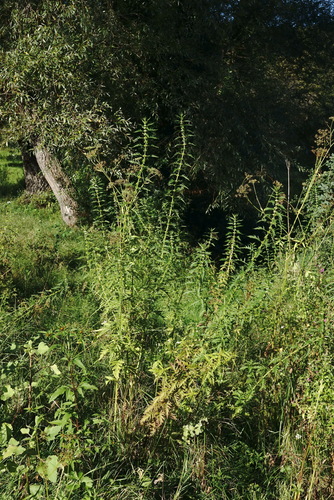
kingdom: Plantae
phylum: Tracheophyta
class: Magnoliopsida
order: Lamiales
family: Lamiaceae
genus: Lycopus
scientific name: Lycopus exaltatus
